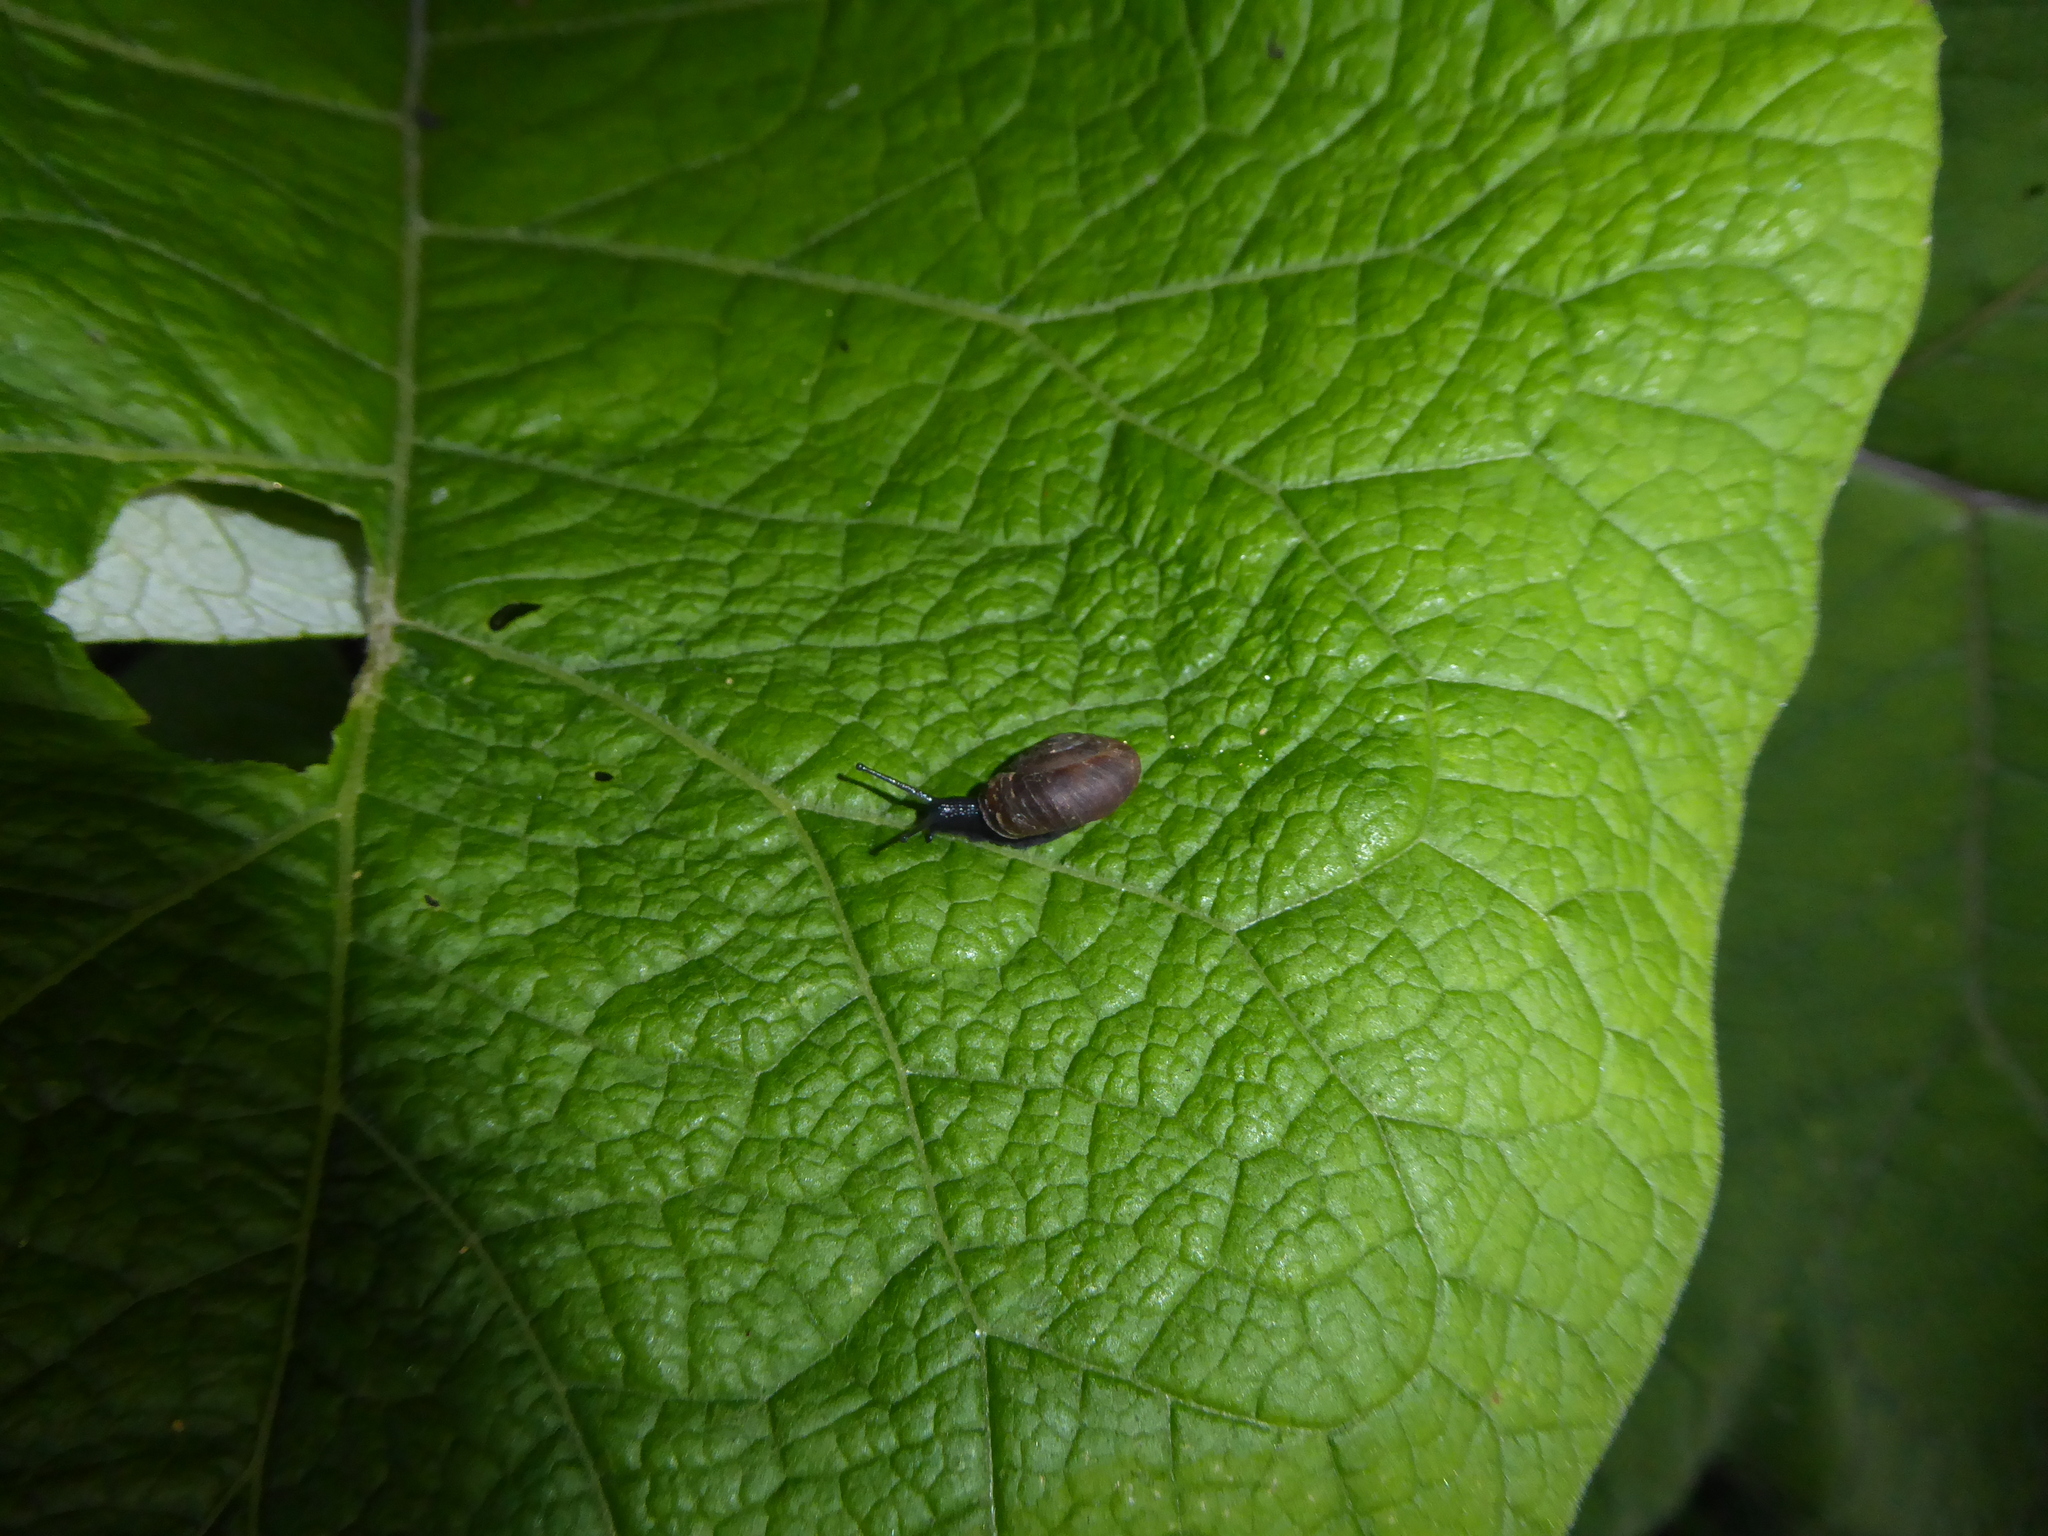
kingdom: Animalia
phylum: Mollusca
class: Gastropoda
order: Stylommatophora
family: Hygromiidae
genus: Trochulus
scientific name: Trochulus striolatus
